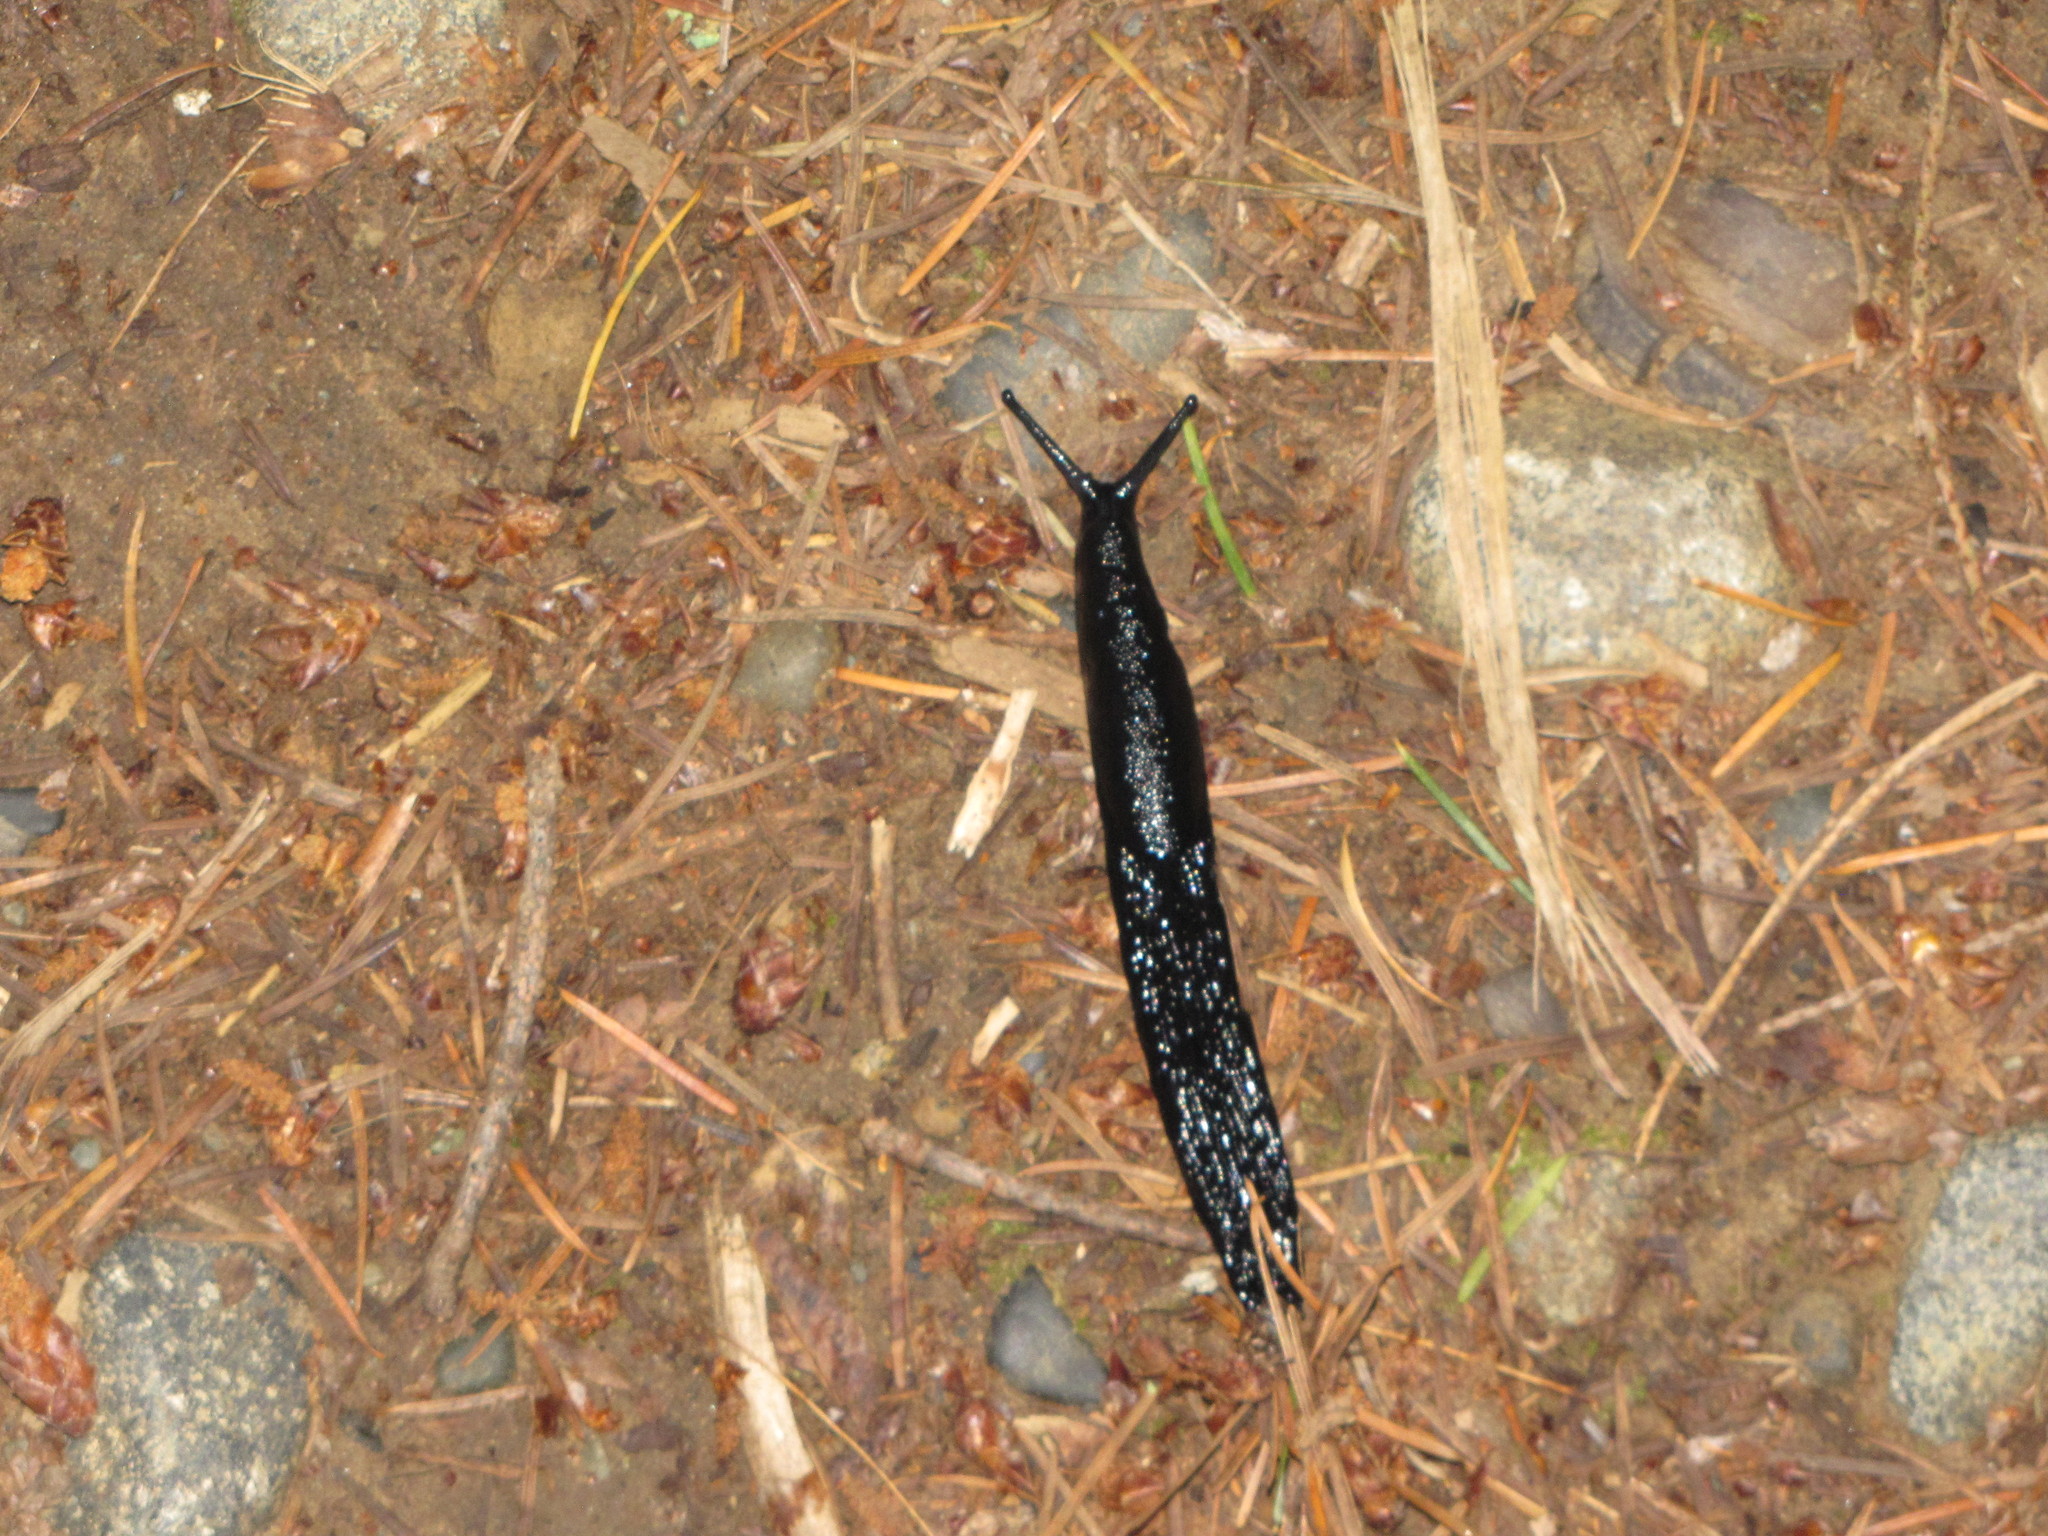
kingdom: Animalia
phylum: Mollusca
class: Gastropoda
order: Stylommatophora
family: Arionidae
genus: Arion
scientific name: Arion rufus
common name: Chocolate arion
